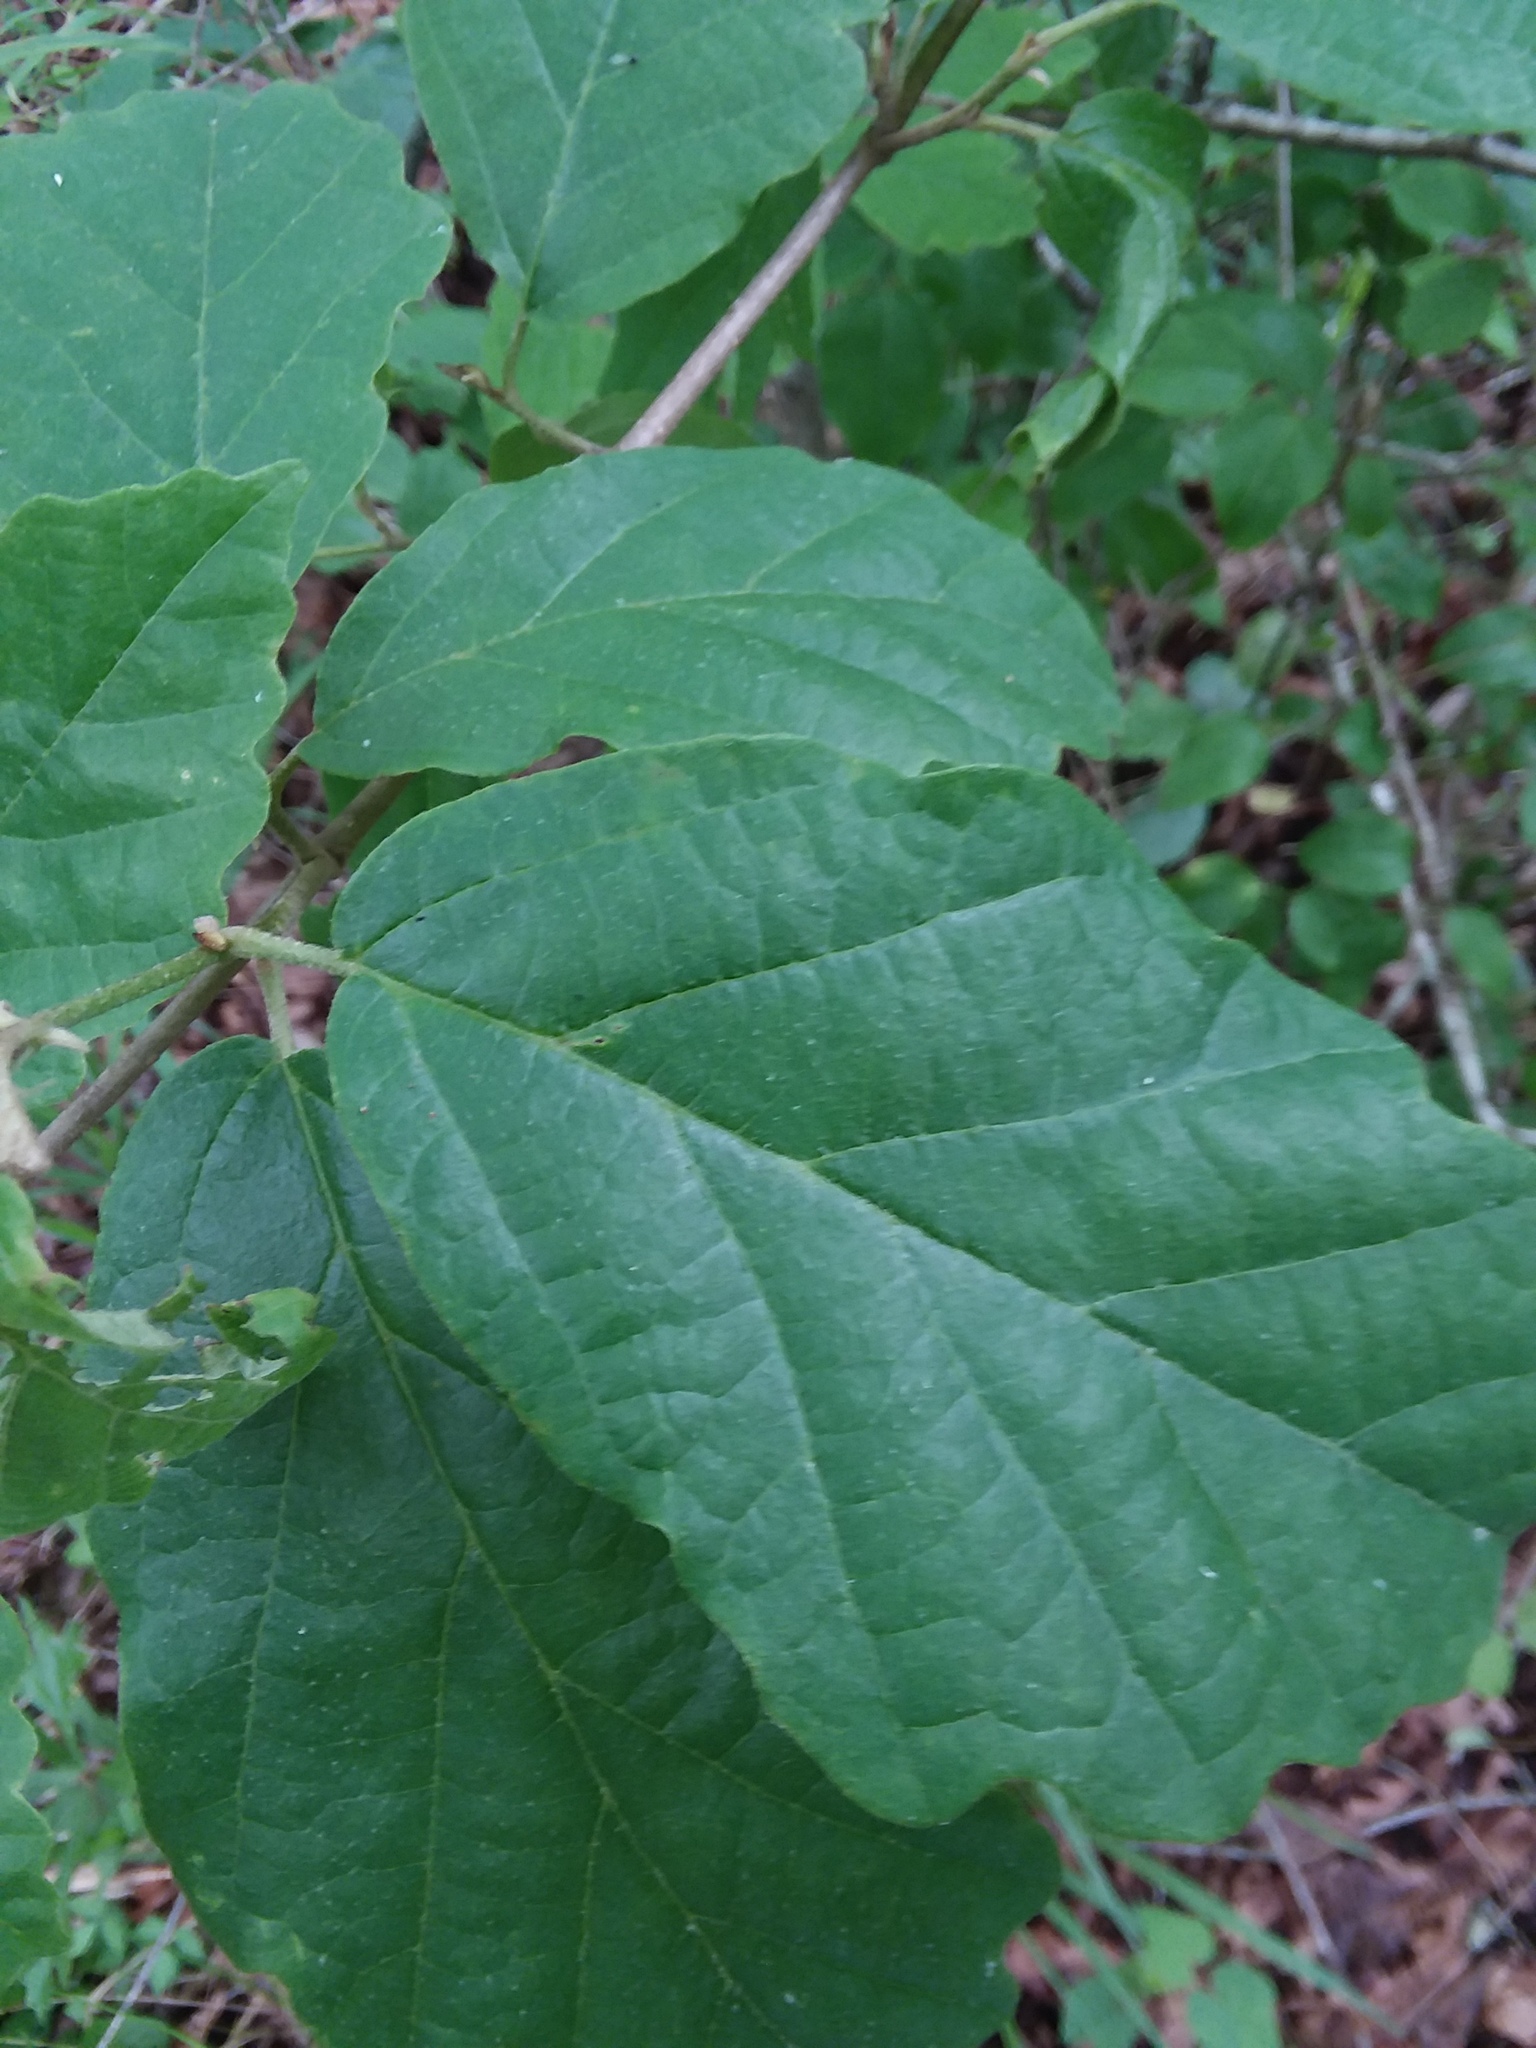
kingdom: Plantae
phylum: Tracheophyta
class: Magnoliopsida
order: Saxifragales
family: Hamamelidaceae
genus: Hamamelis
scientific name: Hamamelis virginiana
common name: Witch-hazel
